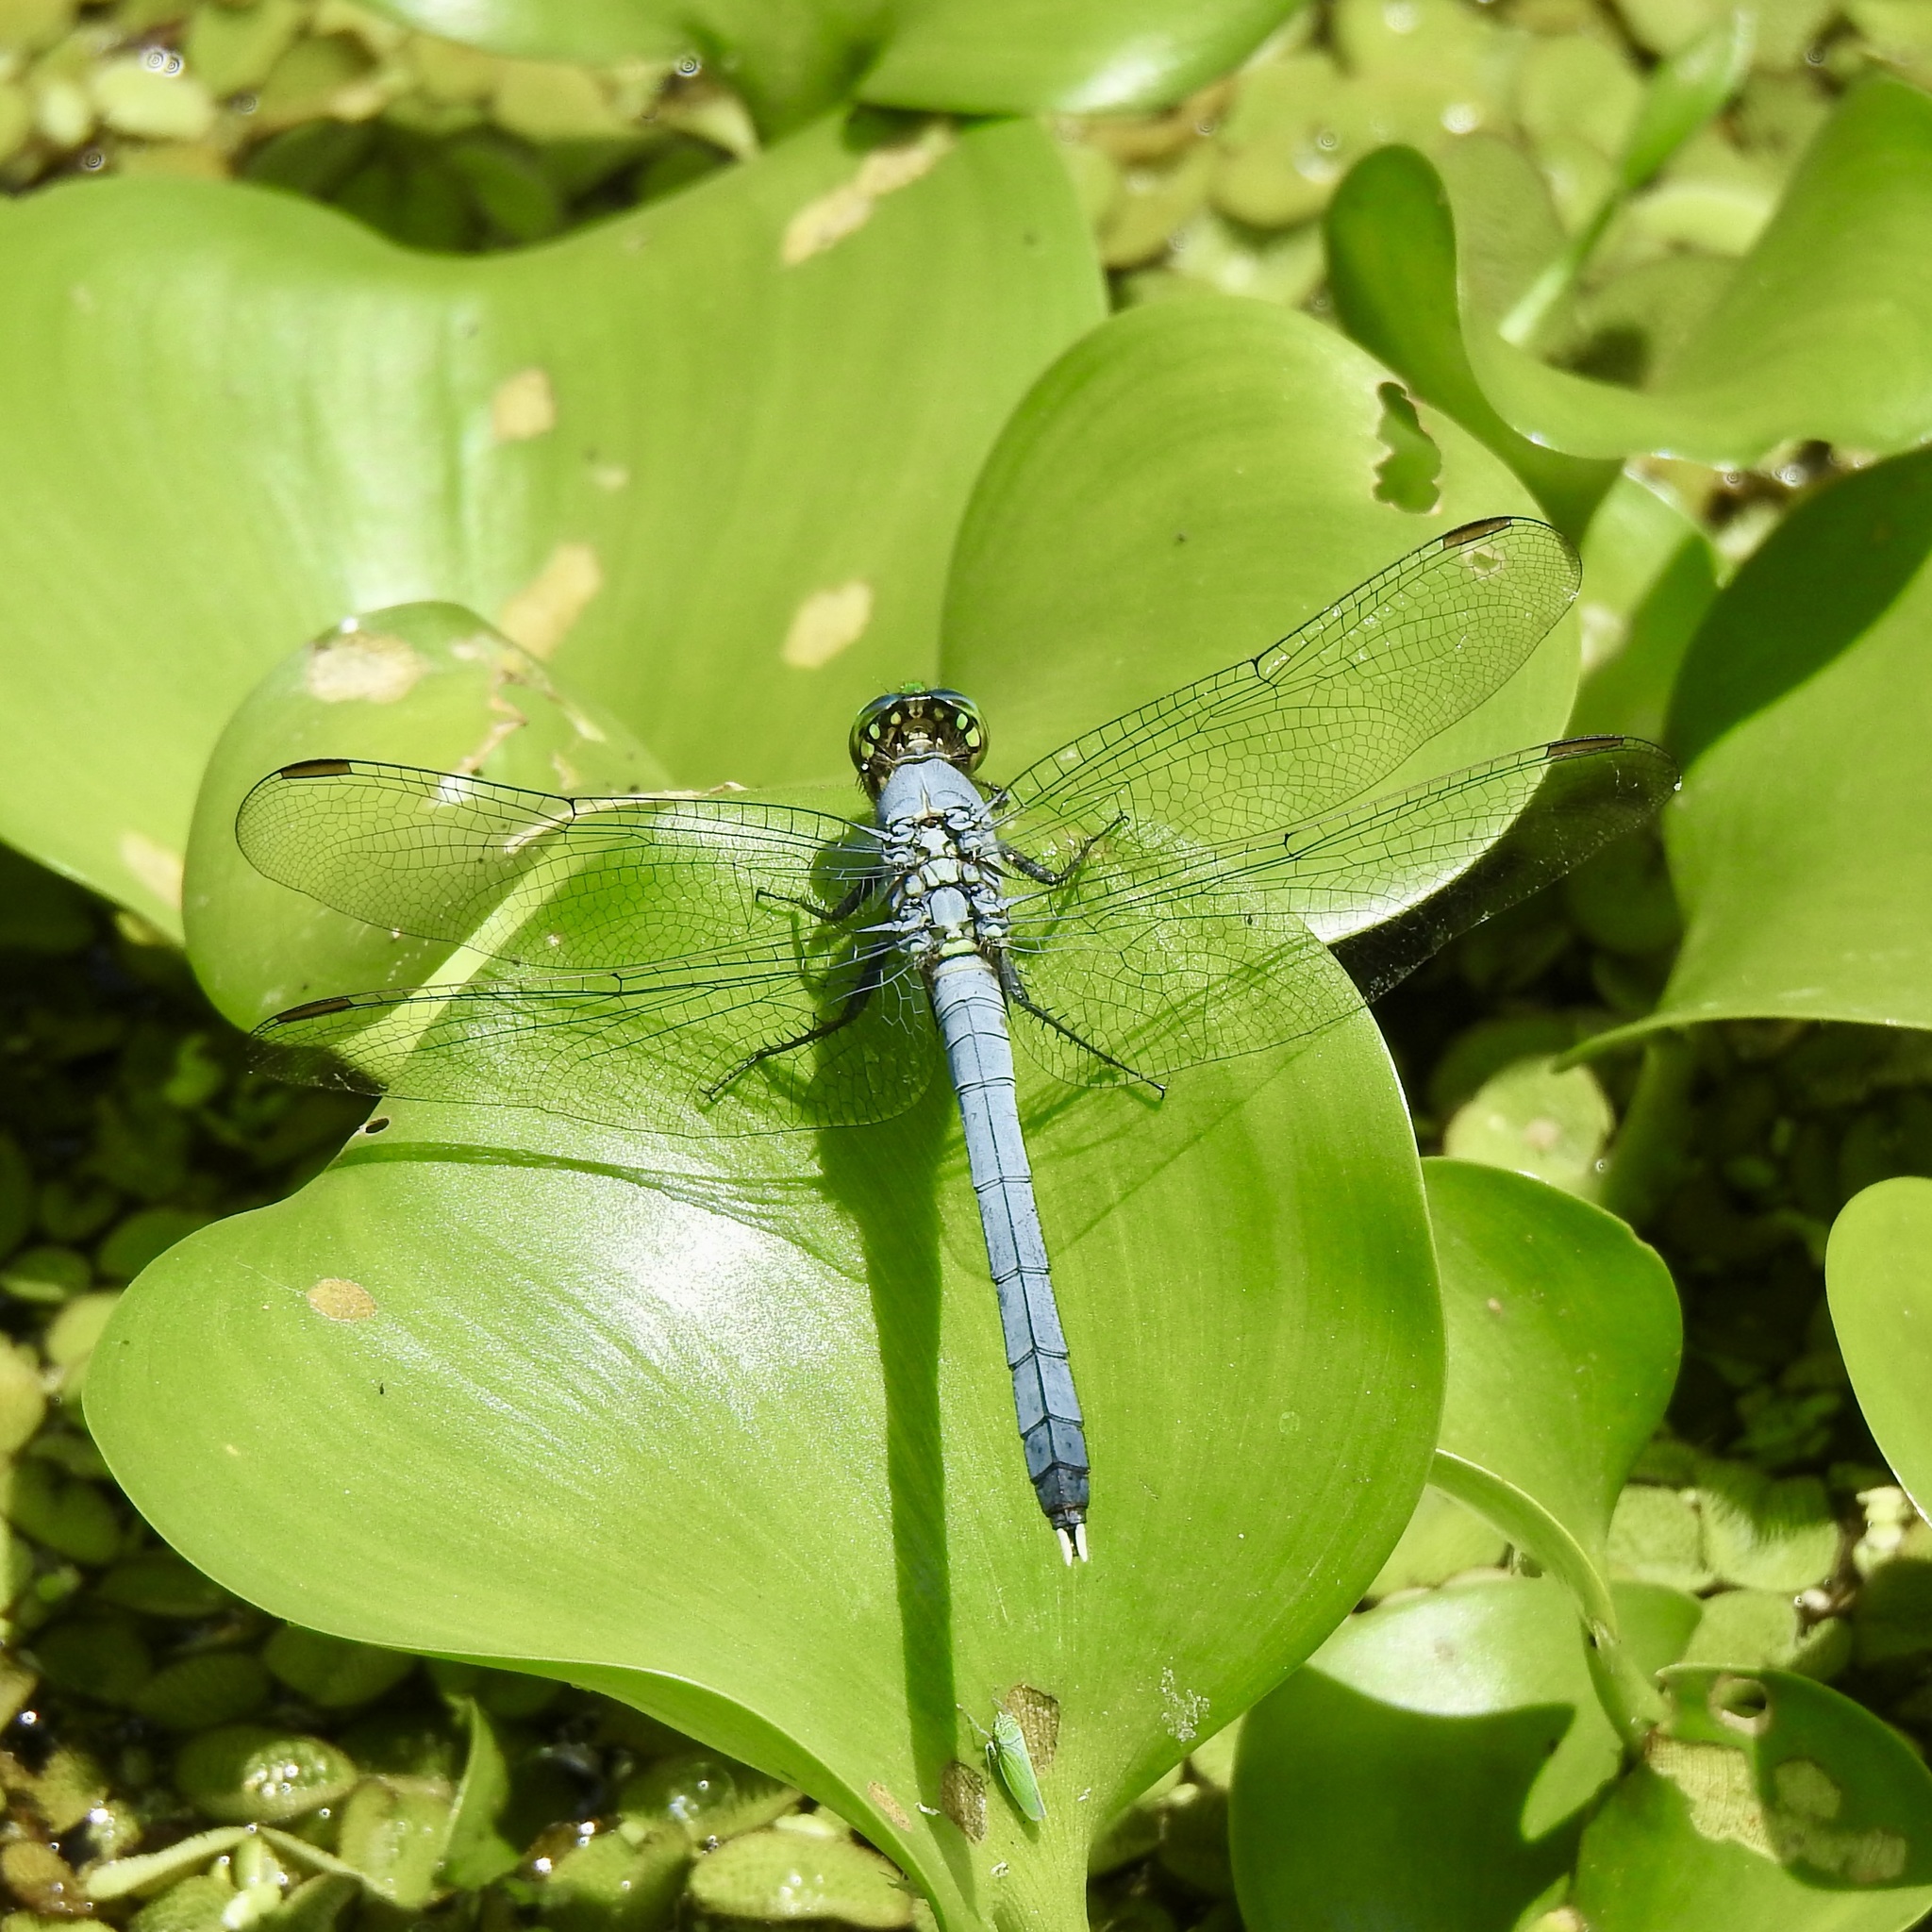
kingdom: Animalia
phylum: Arthropoda
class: Insecta
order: Odonata
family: Libellulidae
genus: Erythemis
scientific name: Erythemis simplicicollis
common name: Eastern pondhawk
